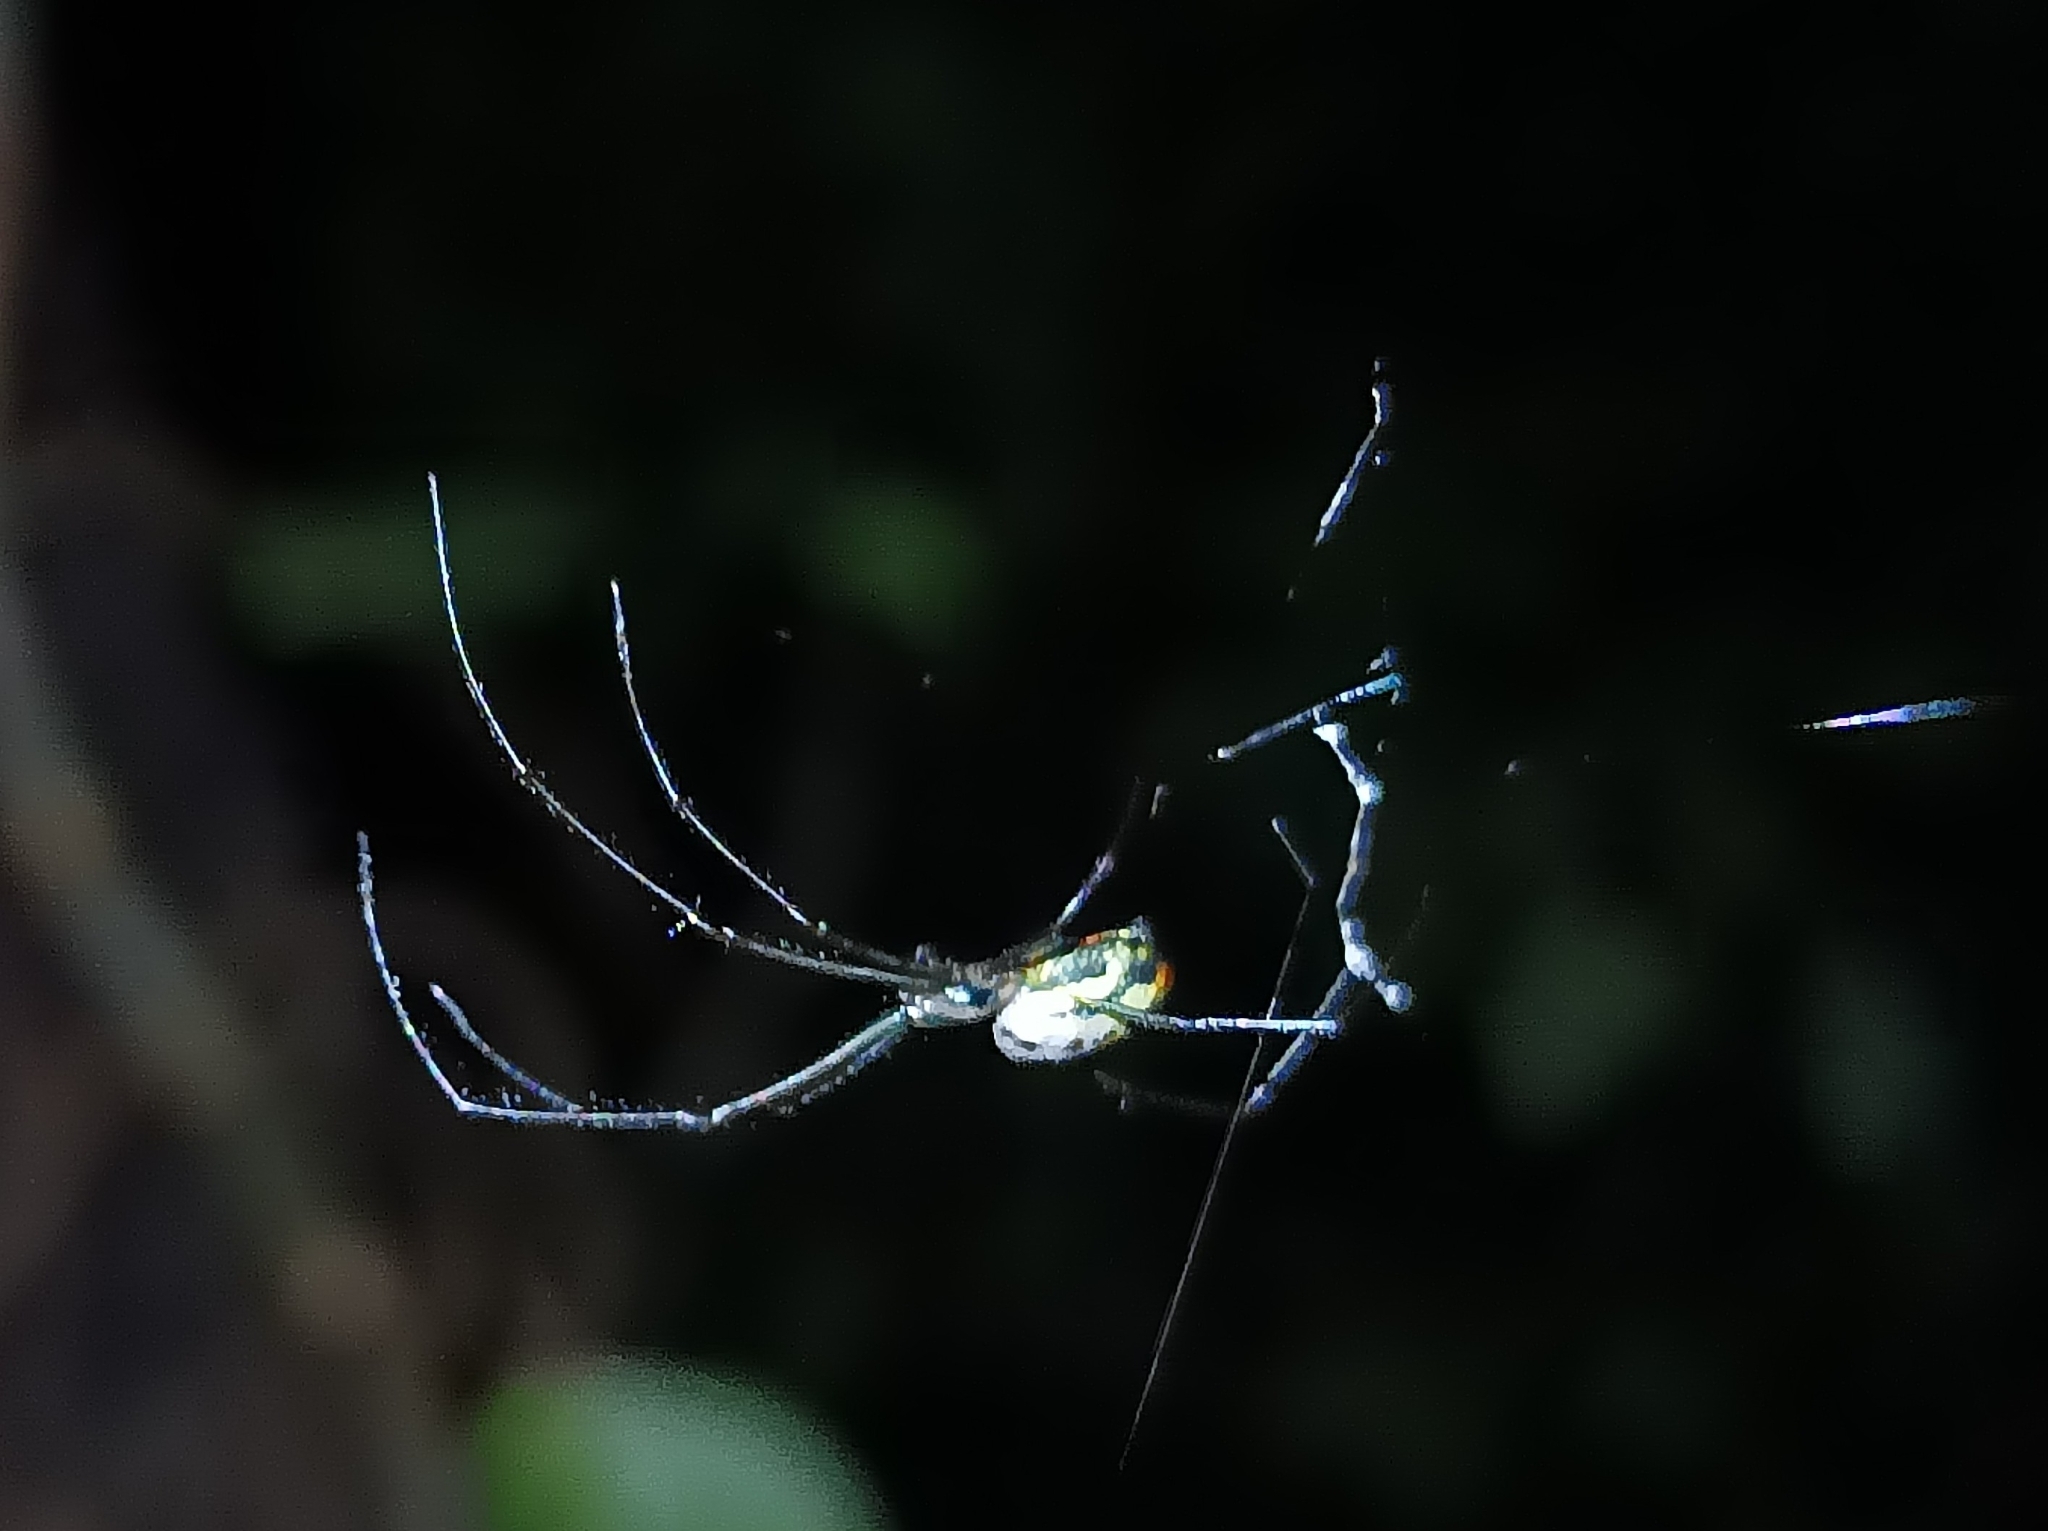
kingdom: Animalia
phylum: Arthropoda
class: Arachnida
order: Araneae
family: Tetragnathidae
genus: Leucauge
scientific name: Leucauge hebridisiana
